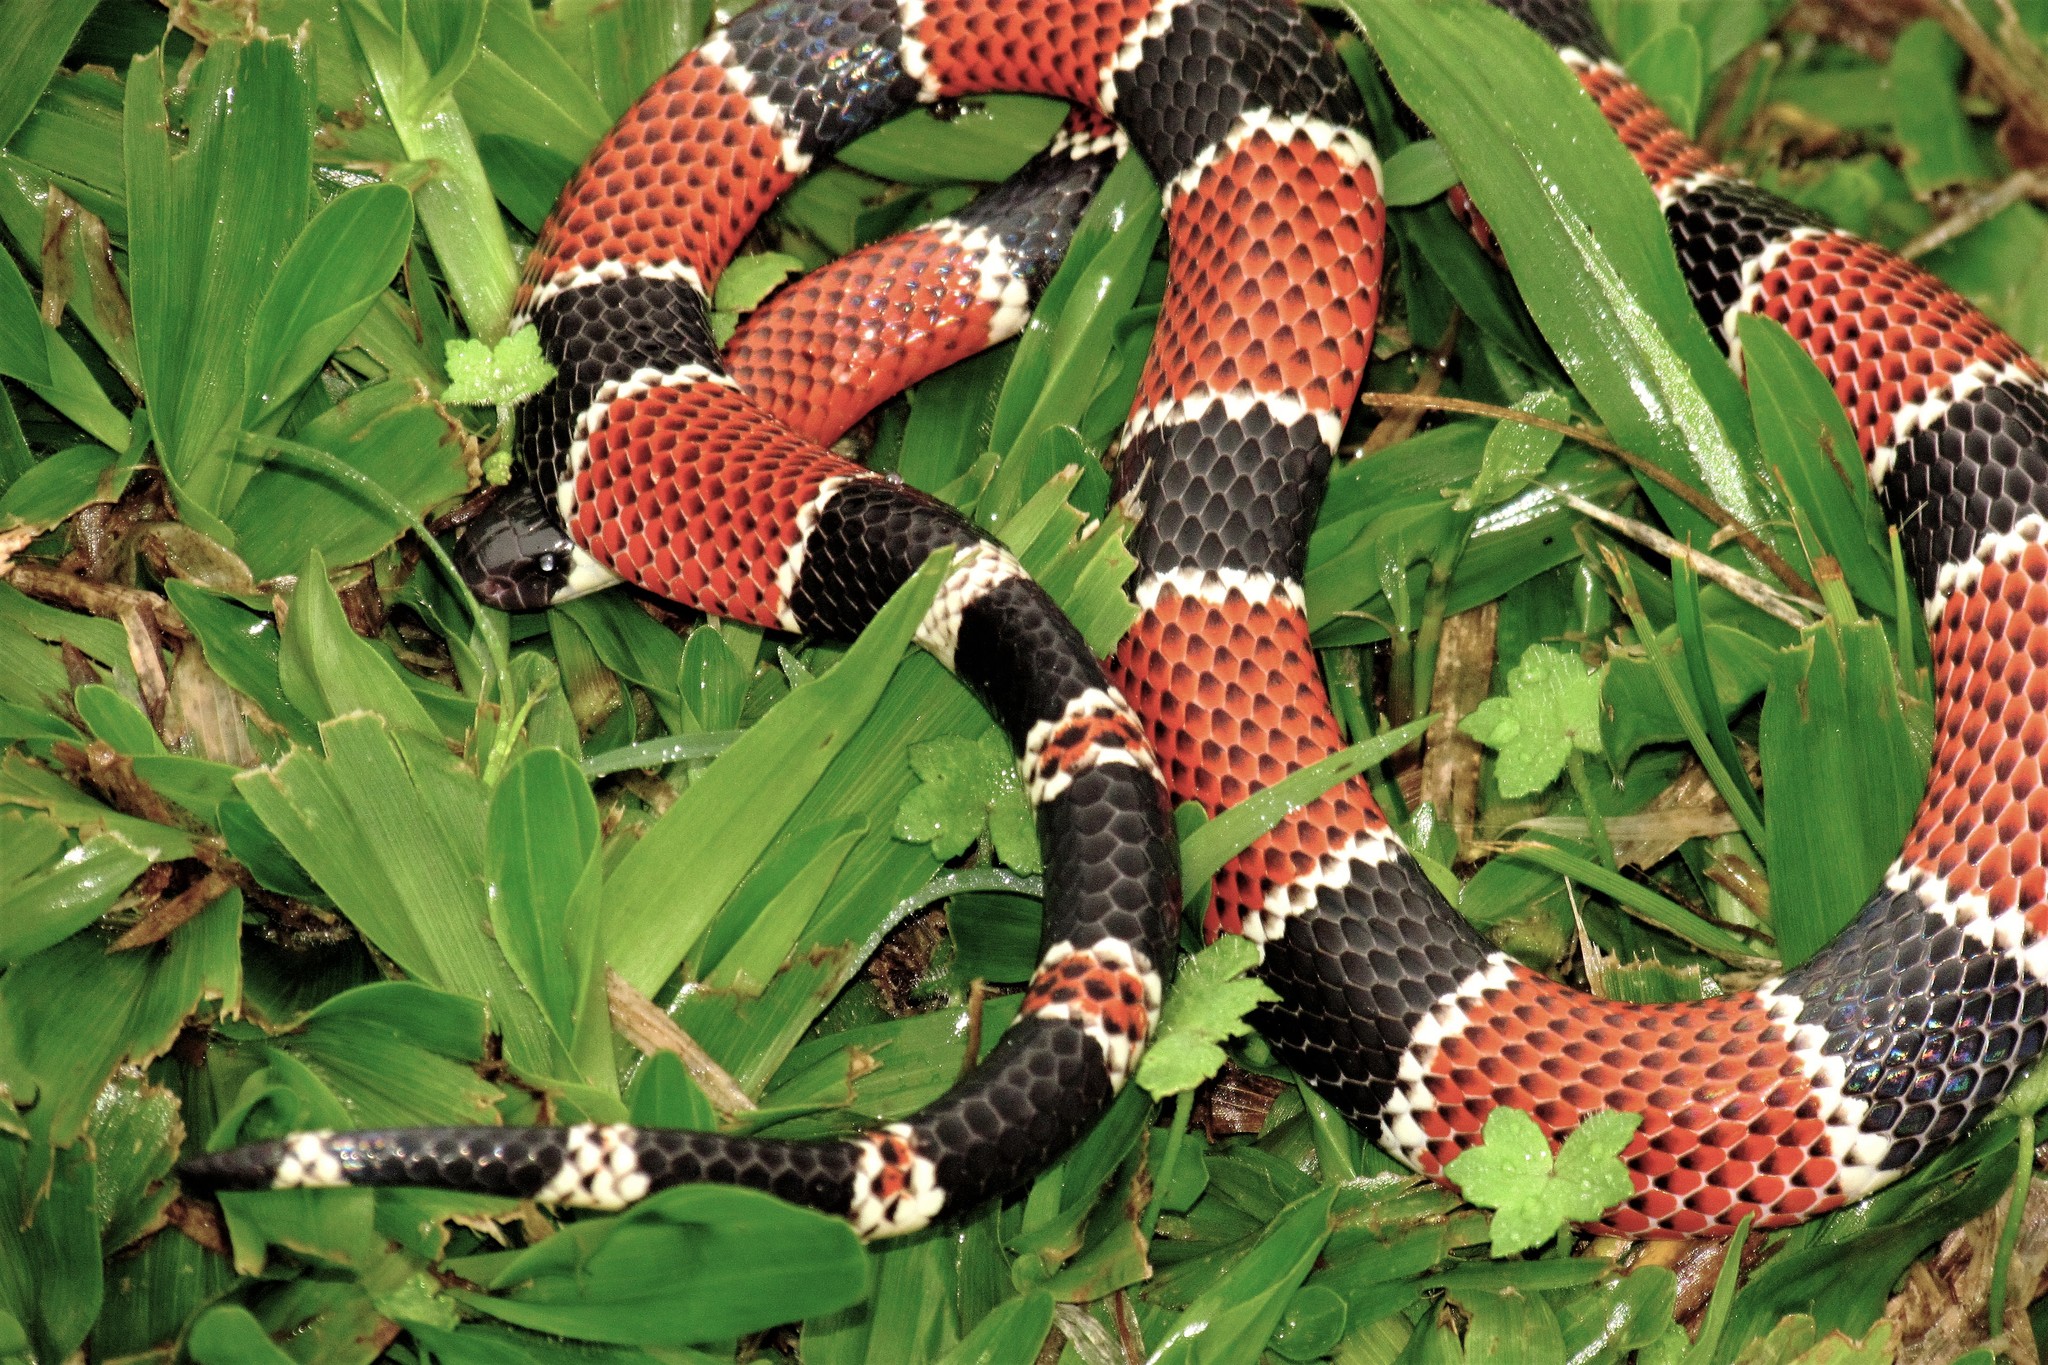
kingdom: Animalia
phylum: Chordata
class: Squamata
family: Elapidae
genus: Micrurus
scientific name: Micrurus corallinus
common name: Painted coral snake
